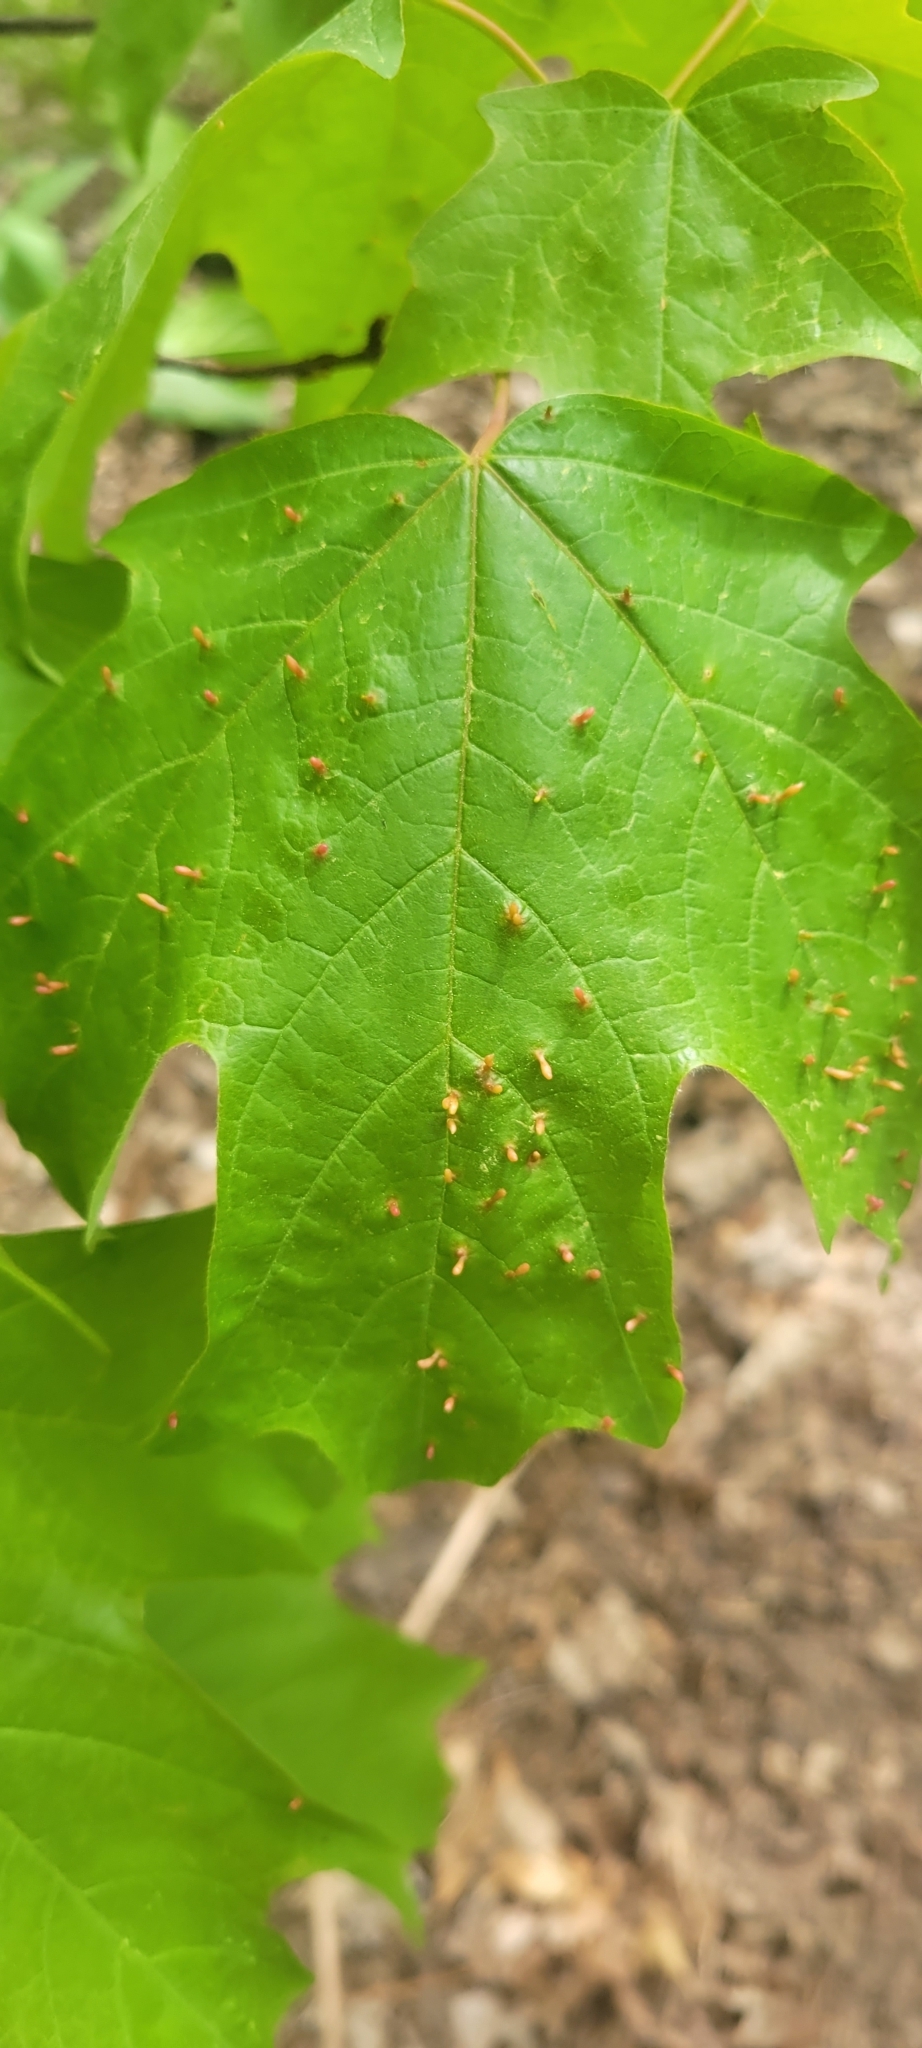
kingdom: Animalia
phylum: Arthropoda
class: Arachnida
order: Trombidiformes
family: Eriophyidae
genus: Vasates
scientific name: Vasates aceriscrumena
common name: Maple spindle gall mite
